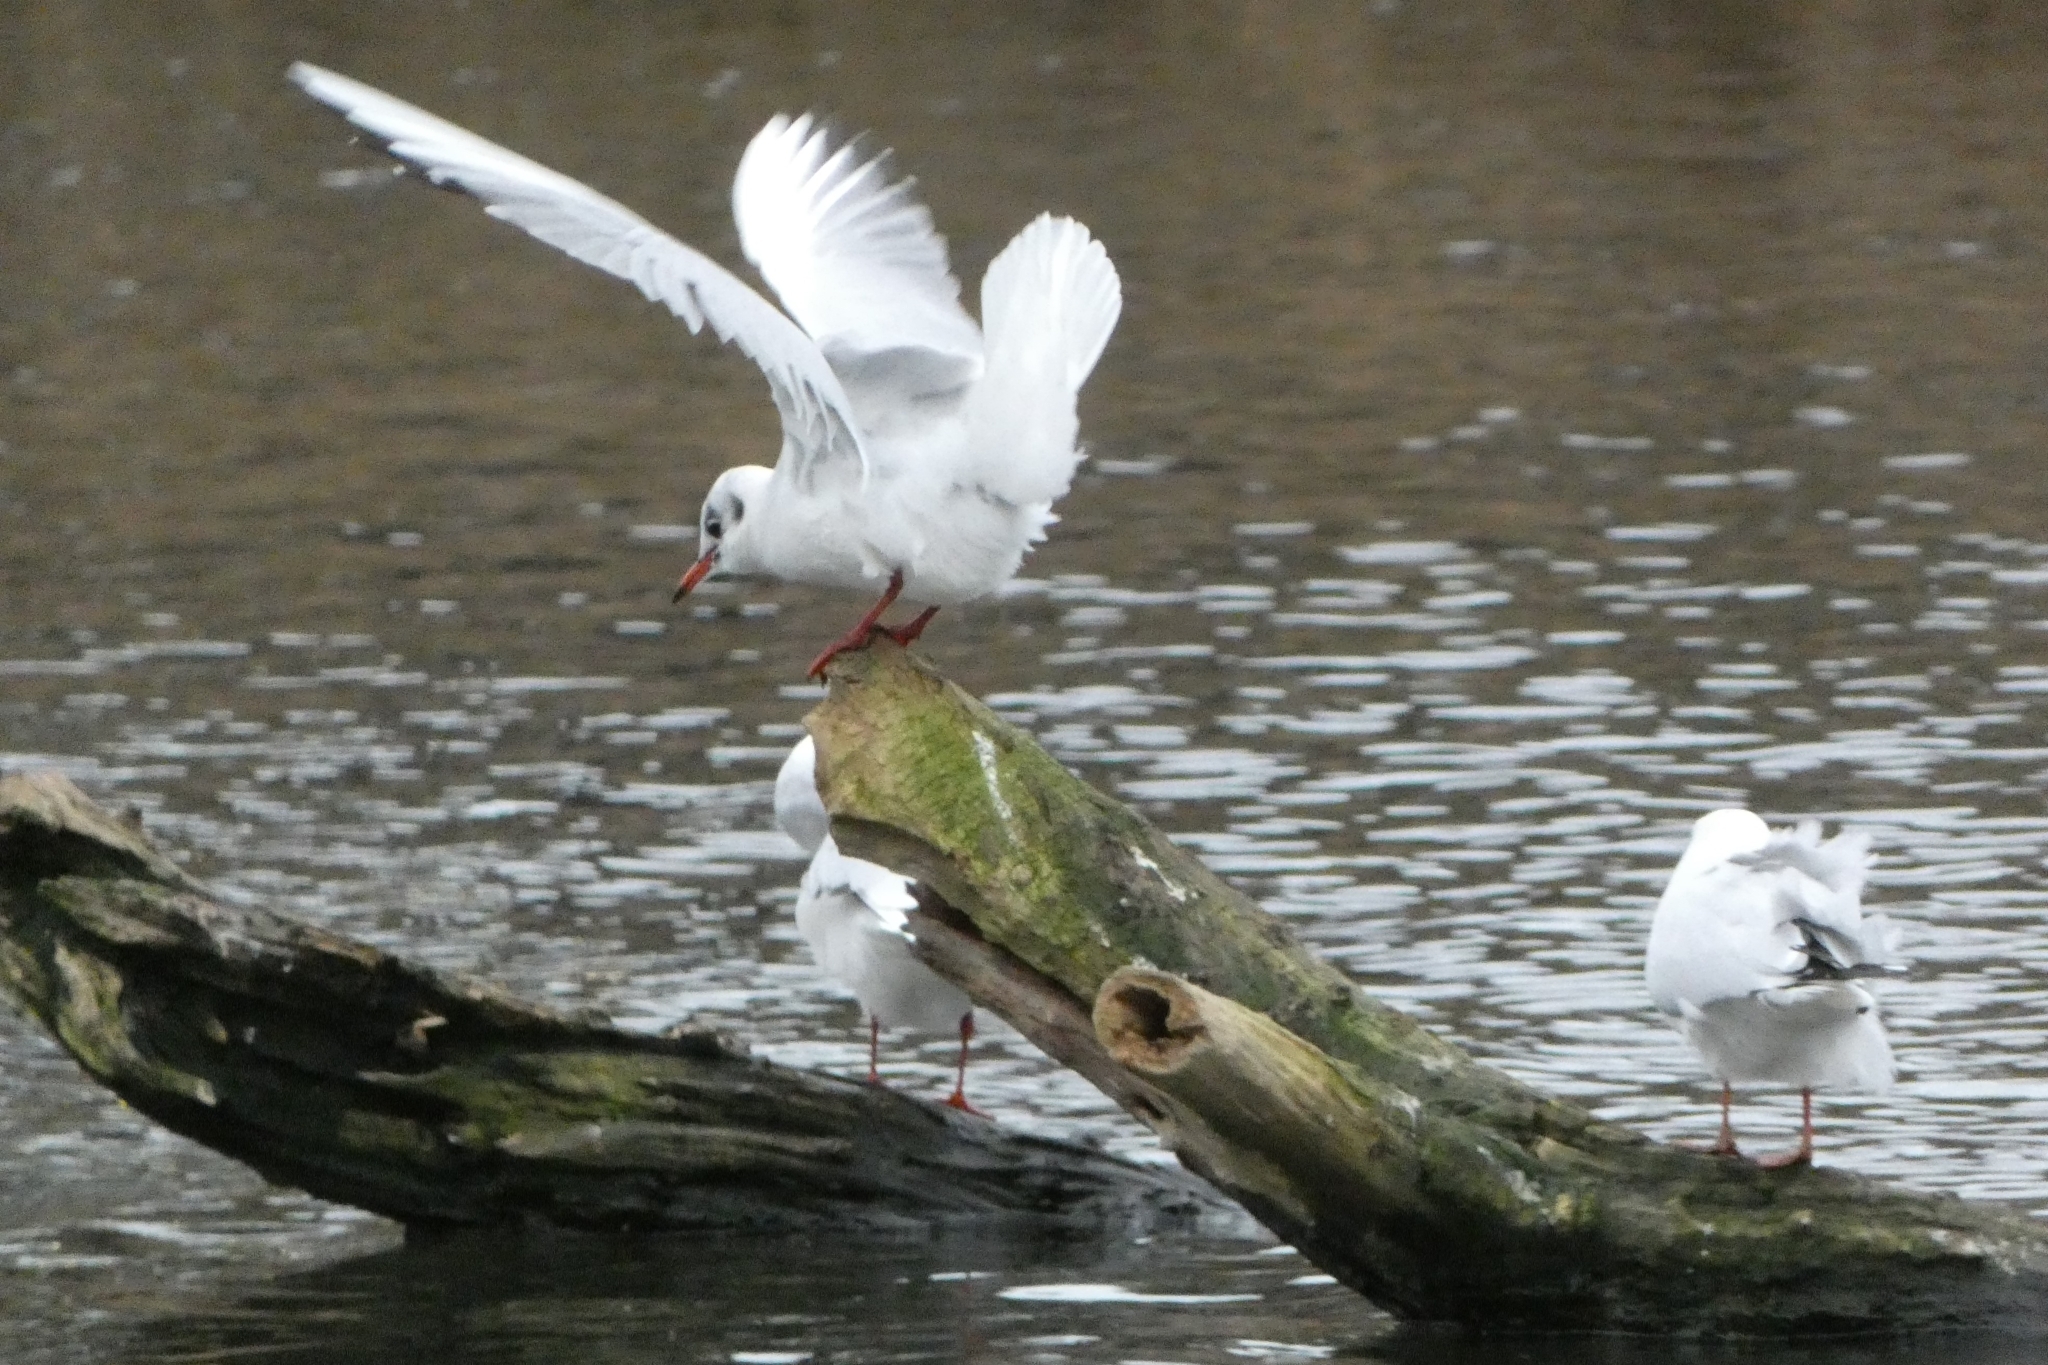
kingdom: Animalia
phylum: Chordata
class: Aves
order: Charadriiformes
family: Laridae
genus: Chroicocephalus
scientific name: Chroicocephalus ridibundus
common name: Black-headed gull
